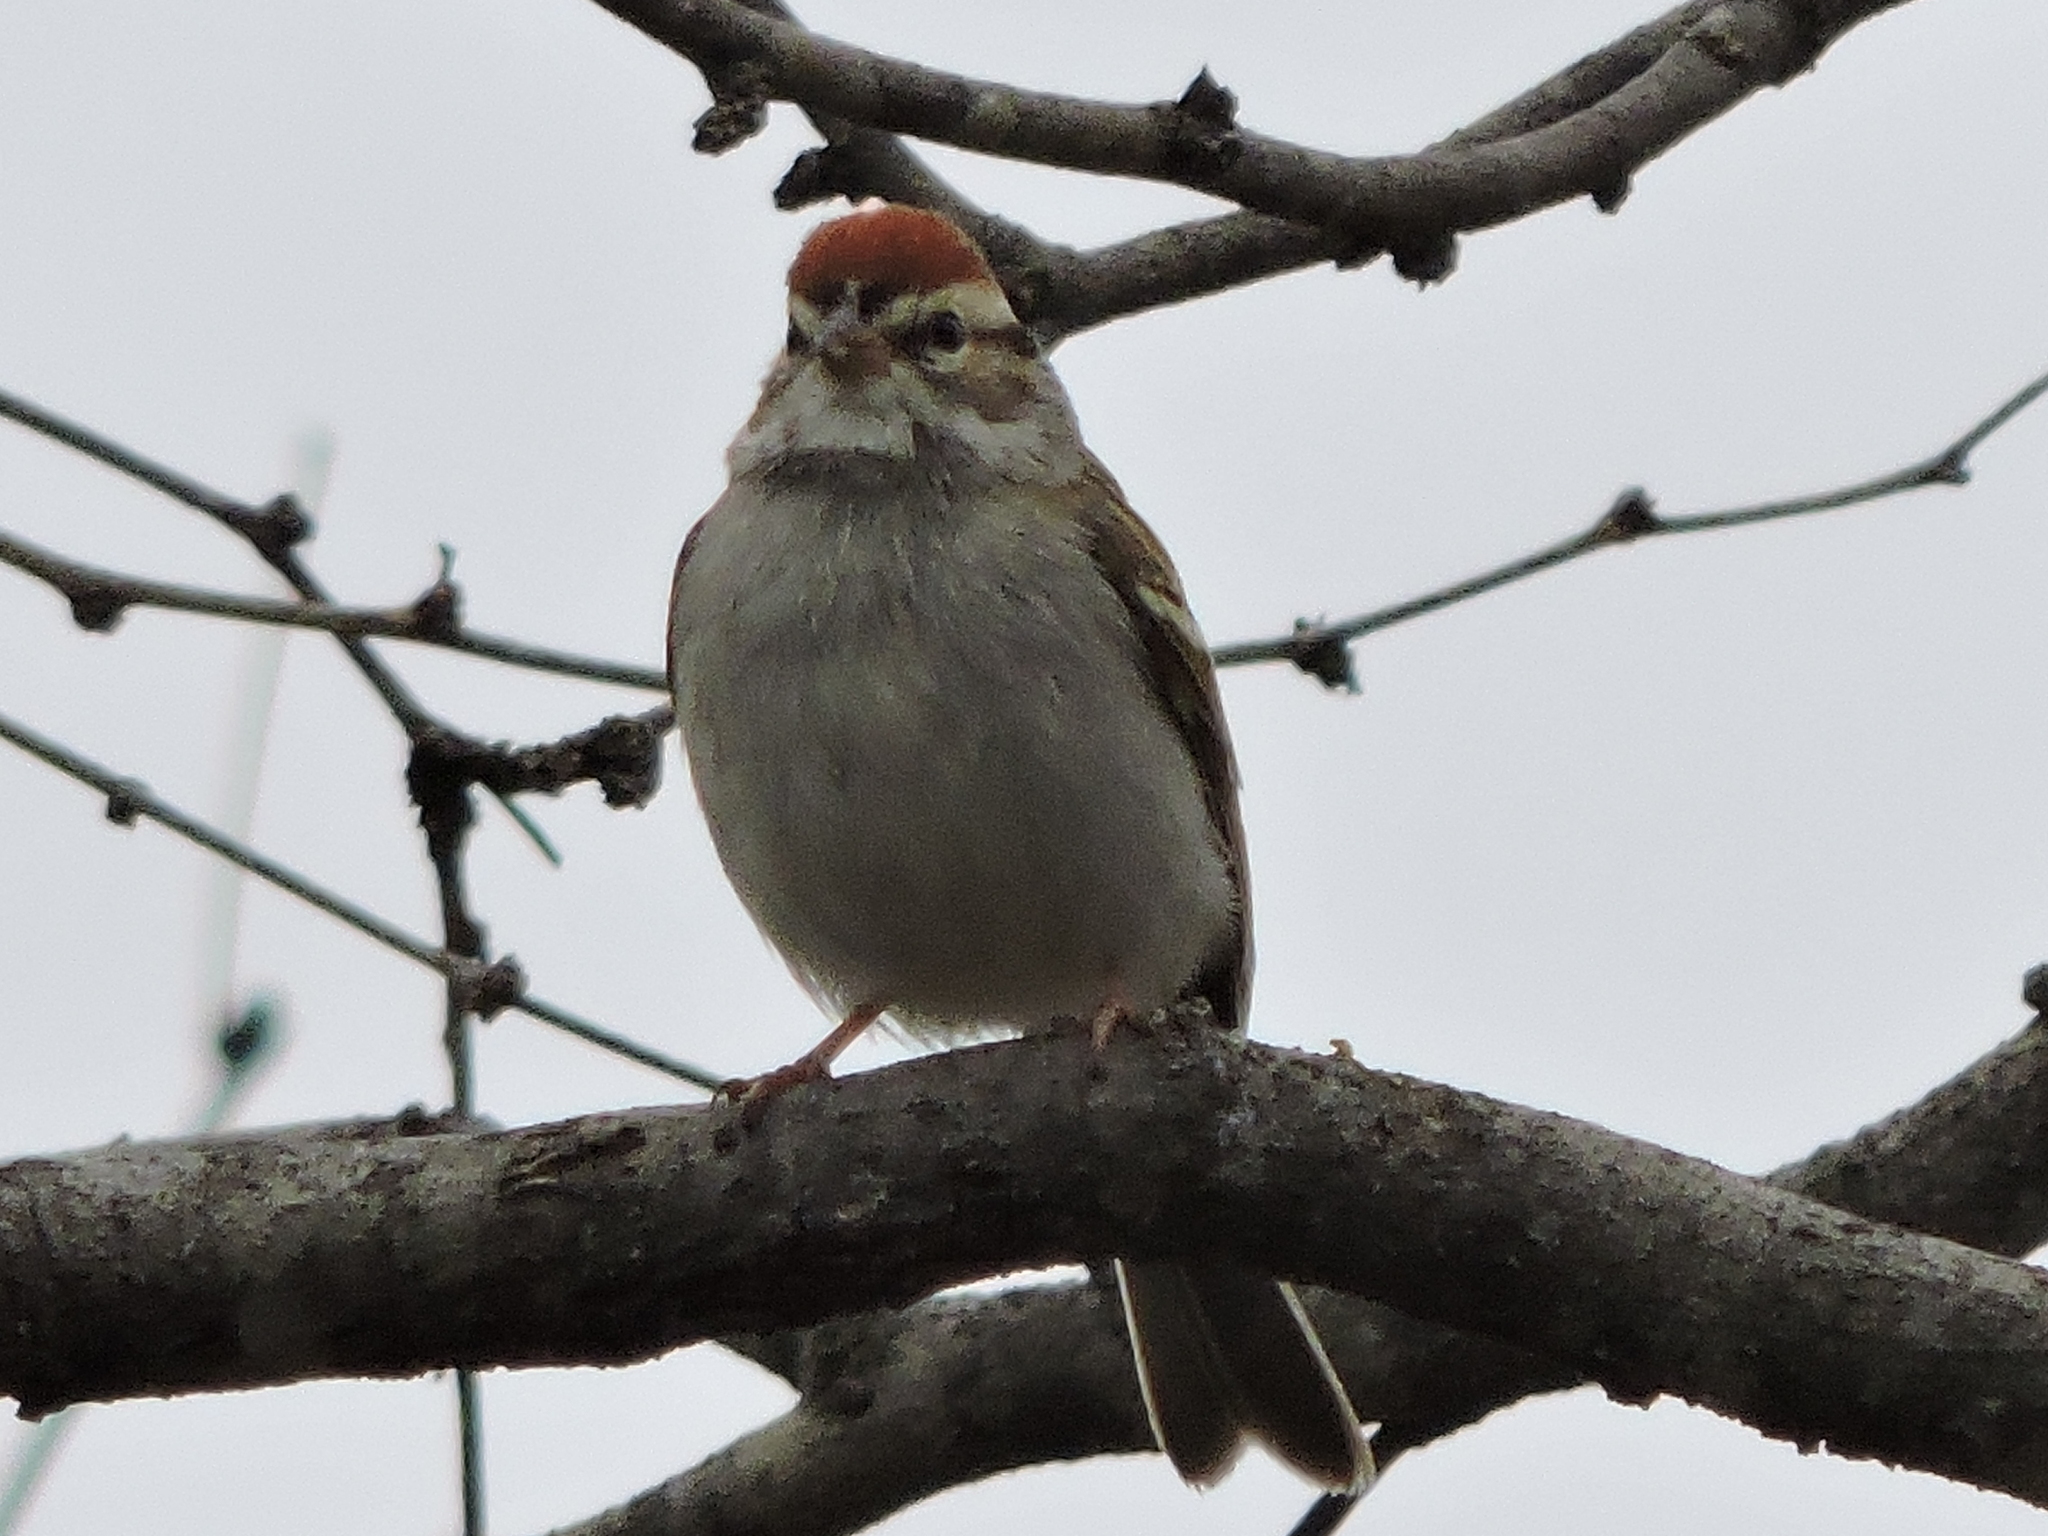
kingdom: Animalia
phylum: Chordata
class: Aves
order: Passeriformes
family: Passerellidae
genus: Spizella
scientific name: Spizella passerina
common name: Chipping sparrow
